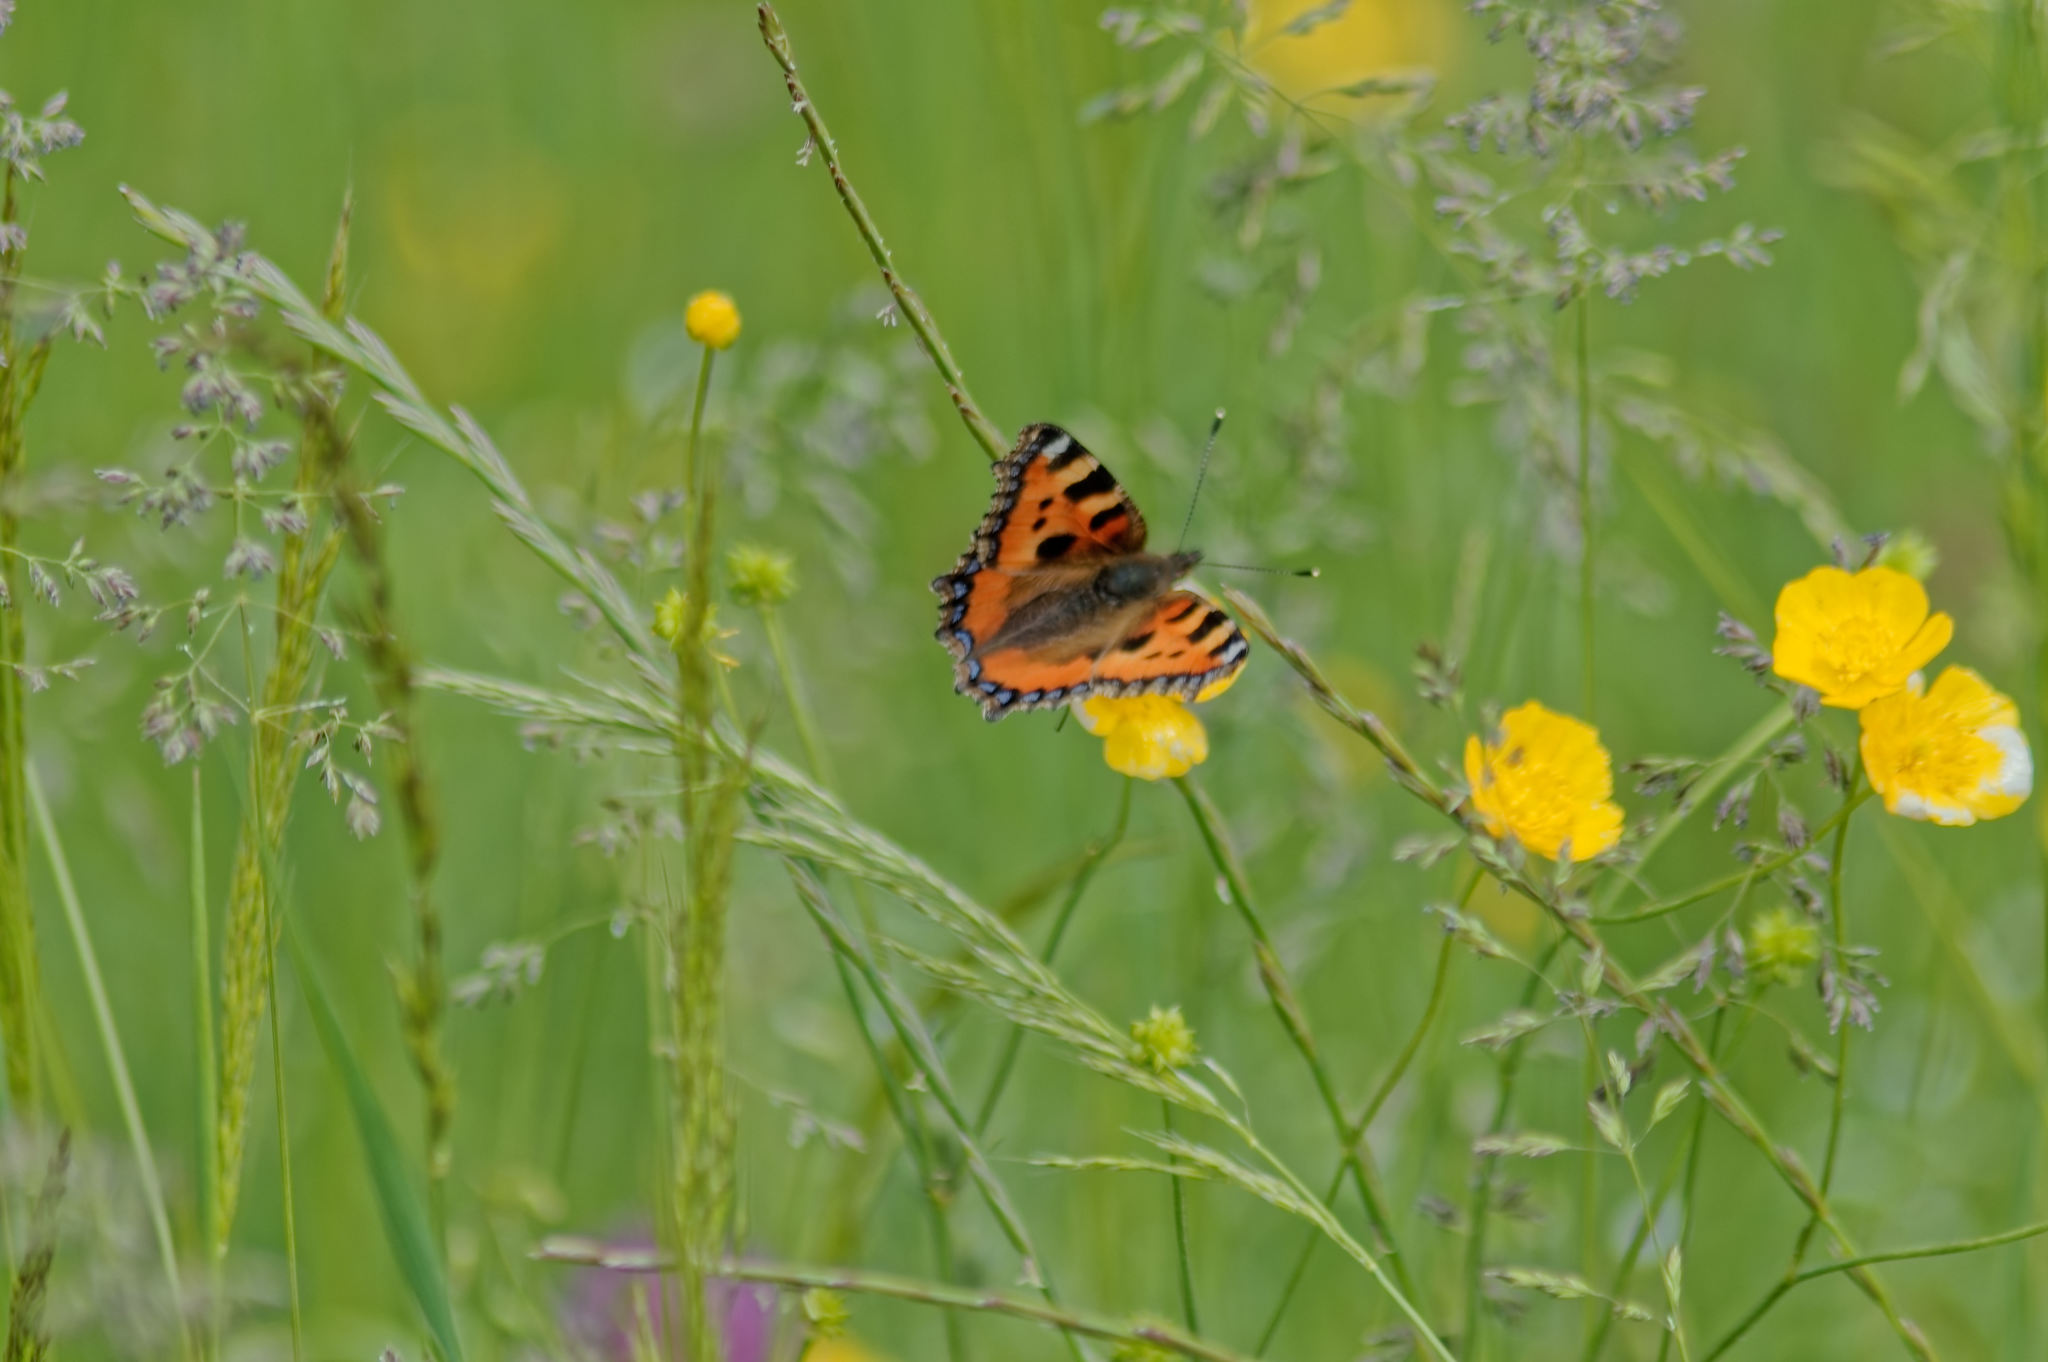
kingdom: Animalia
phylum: Arthropoda
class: Insecta
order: Lepidoptera
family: Nymphalidae
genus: Aglais
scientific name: Aglais urticae
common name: Small tortoiseshell
